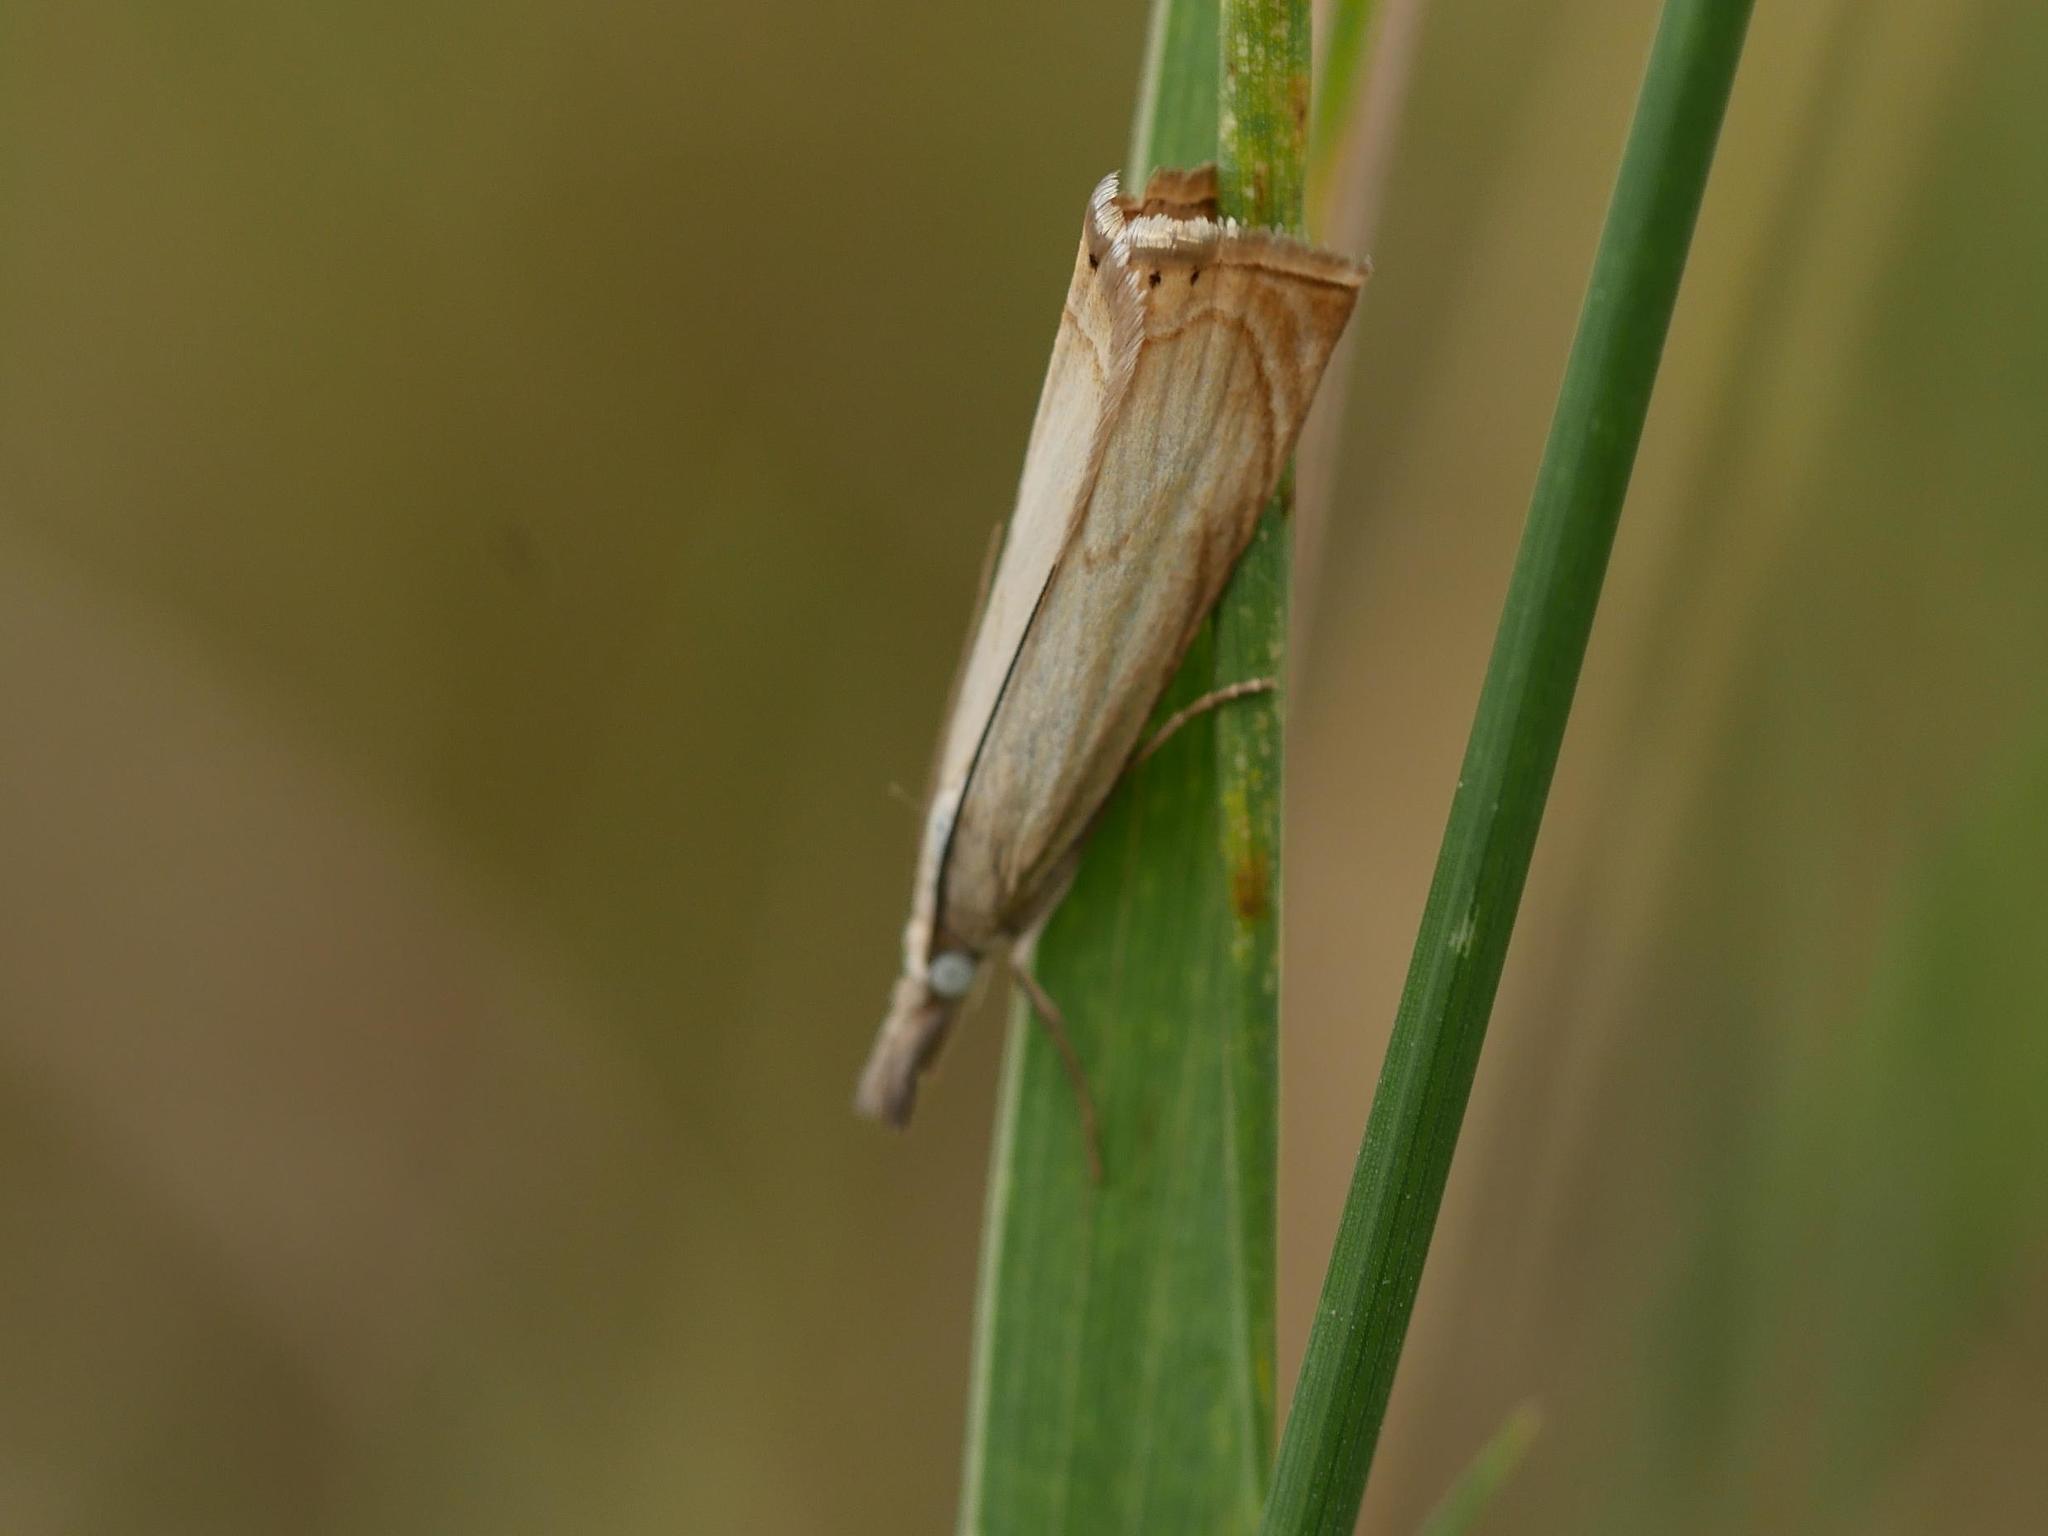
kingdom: Animalia
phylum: Arthropoda
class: Insecta
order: Lepidoptera
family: Crambidae
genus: Chrysoteuchia
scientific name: Chrysoteuchia culmella
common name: Garden grass-veneer
